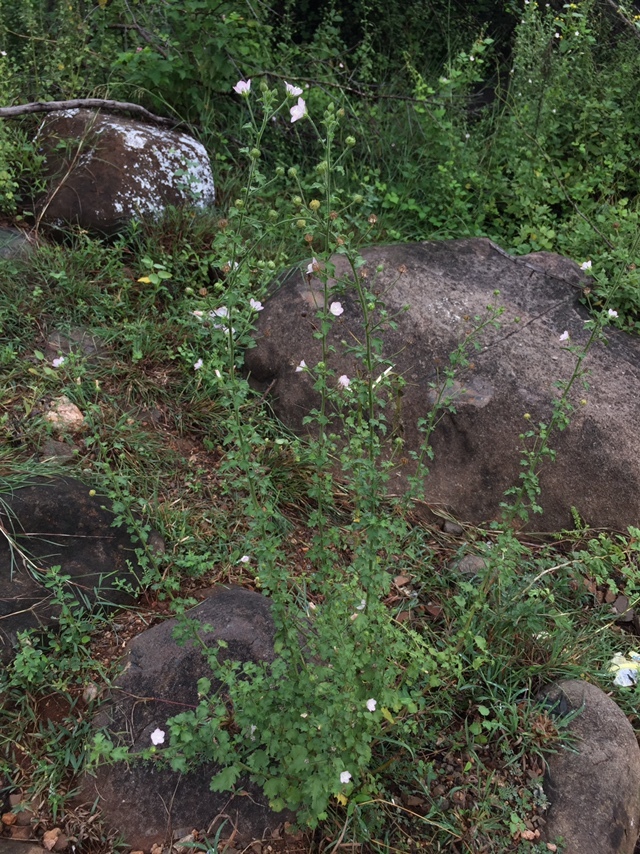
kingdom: Plantae
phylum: Tracheophyta
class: Magnoliopsida
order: Malvales
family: Malvaceae
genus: Pavonia
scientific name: Pavonia zeylanica
